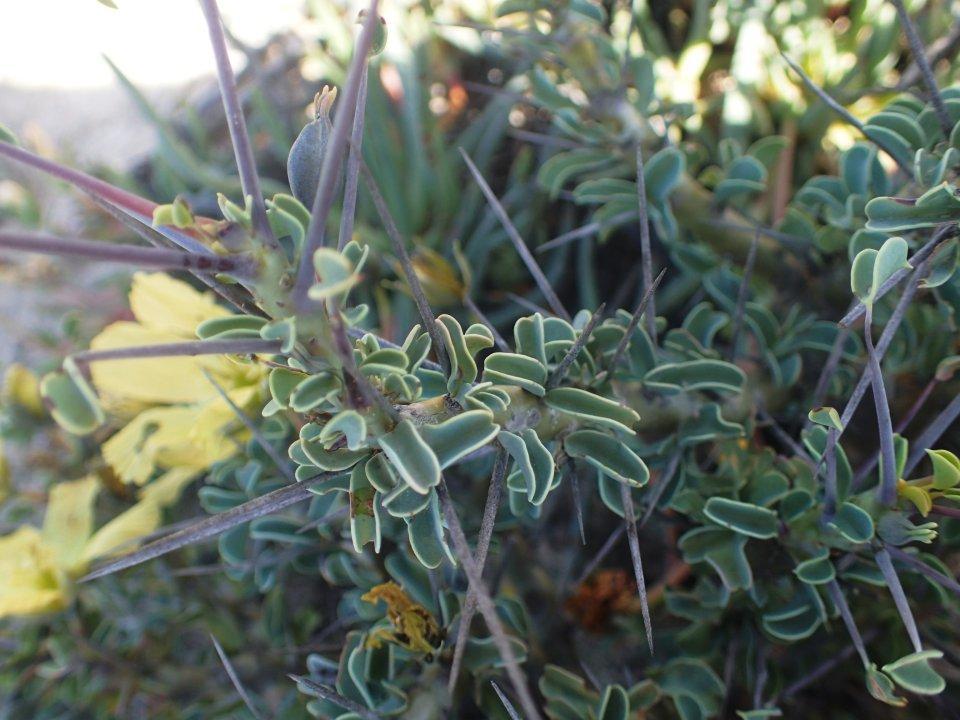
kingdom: Plantae
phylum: Tracheophyta
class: Magnoliopsida
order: Geraniales
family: Geraniaceae
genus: Monsonia
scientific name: Monsonia spinosa
